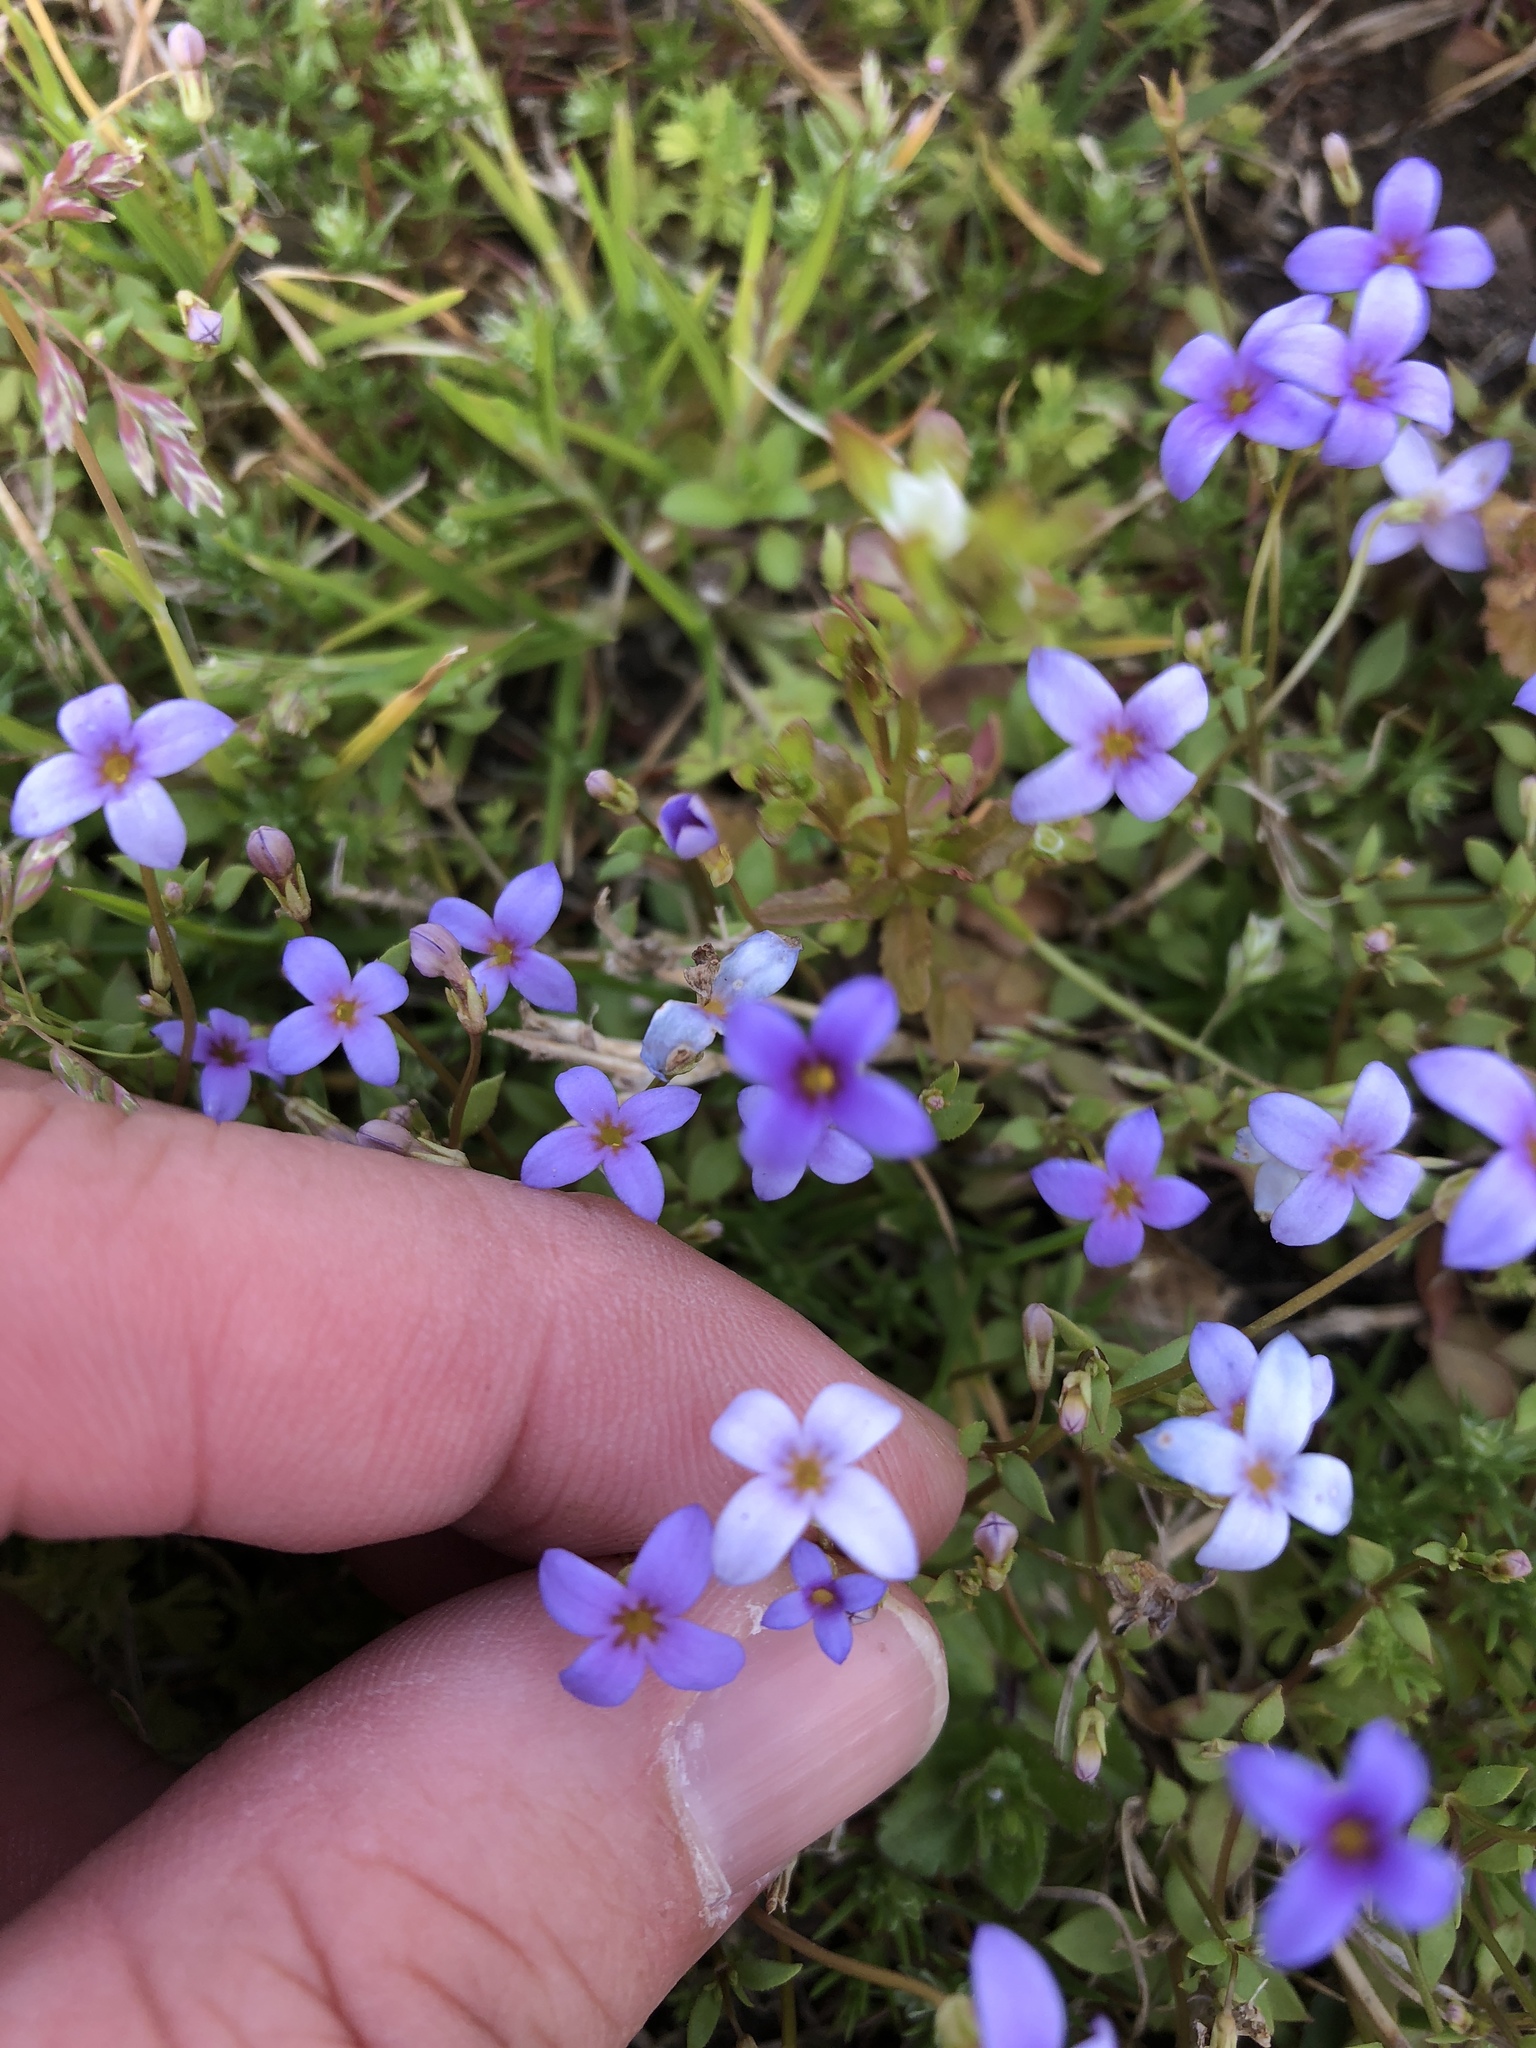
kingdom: Plantae
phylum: Tracheophyta
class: Magnoliopsida
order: Gentianales
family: Rubiaceae
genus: Houstonia
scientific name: Houstonia pusilla
